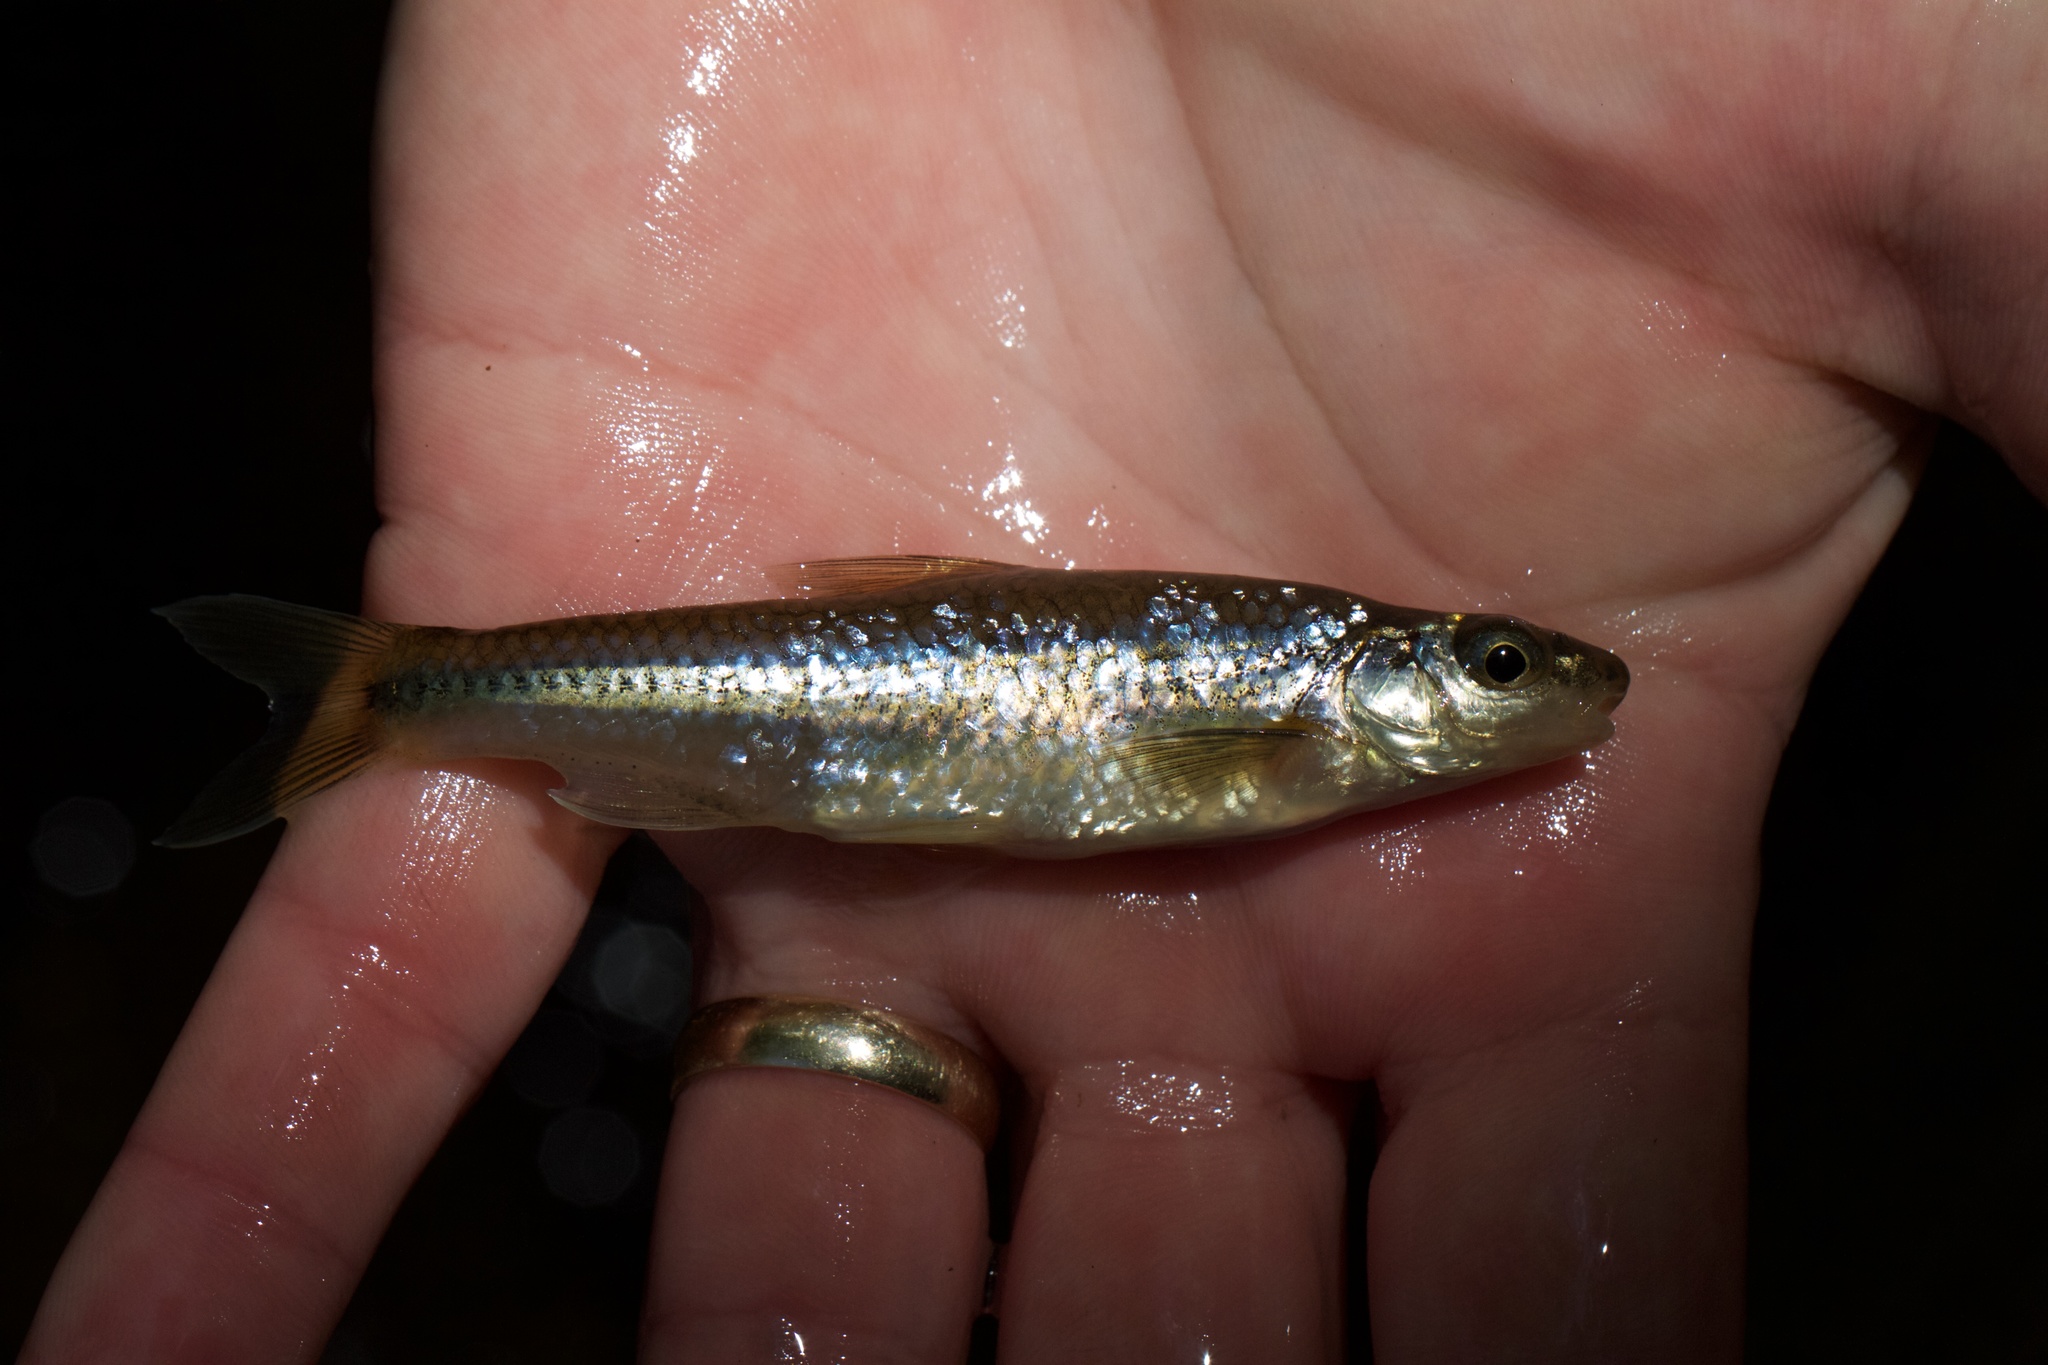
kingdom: Animalia
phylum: Chordata
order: Cypriniformes
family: Cyprinidae
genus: Notropis
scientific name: Notropis
